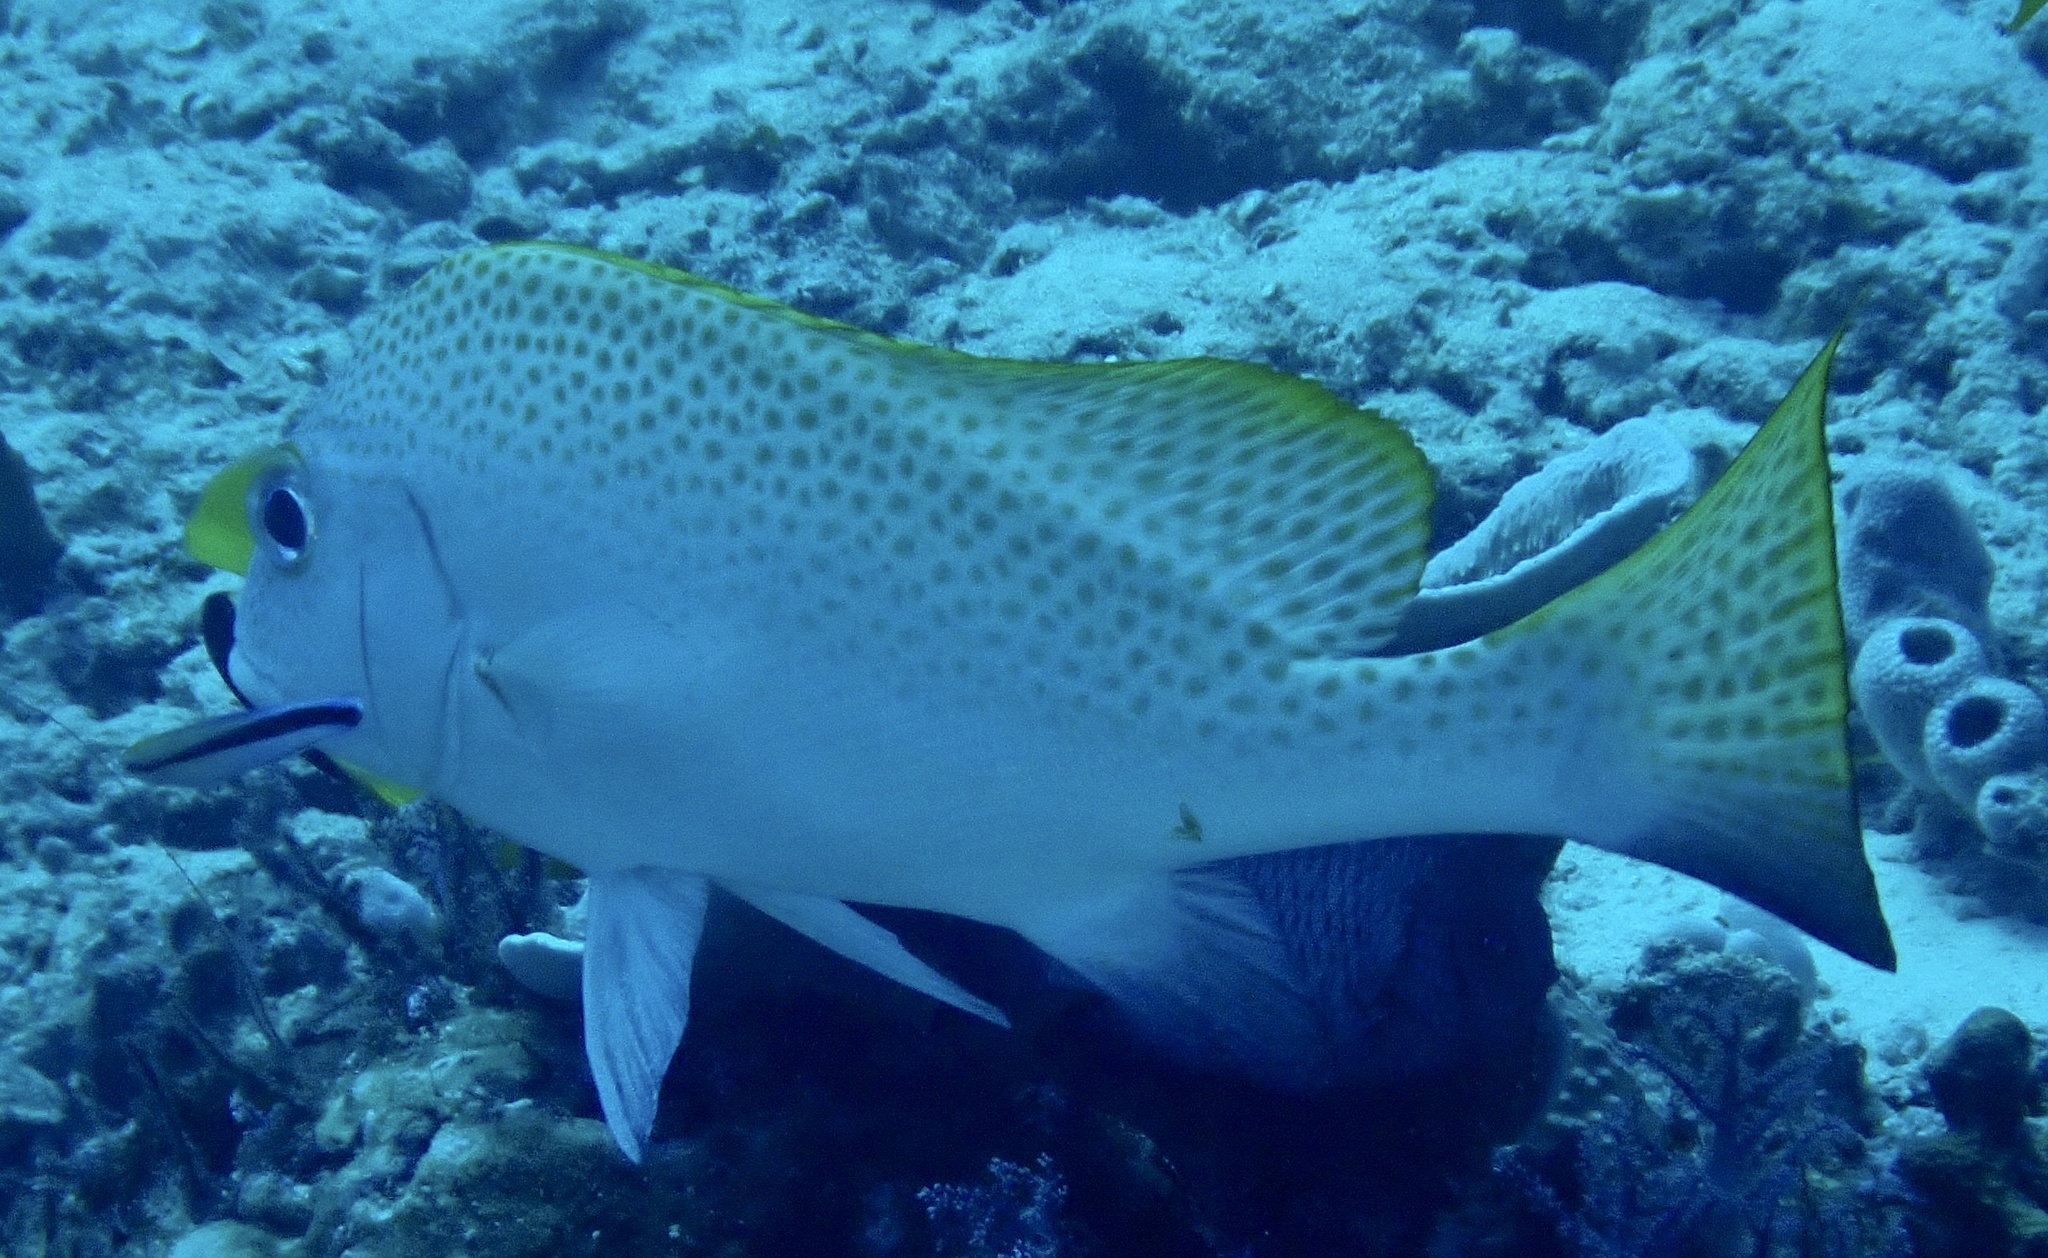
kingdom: Animalia
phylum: Chordata
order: Perciformes
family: Haemulidae
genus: Diagramma
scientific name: Diagramma melanacrum
